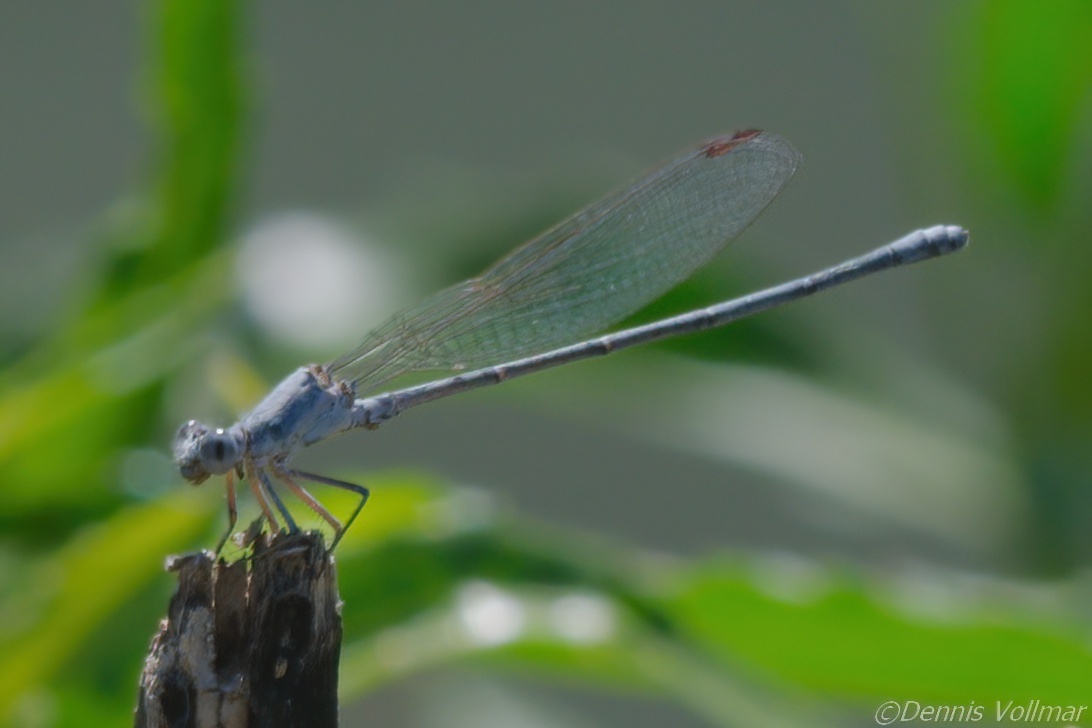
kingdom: Animalia
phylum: Arthropoda
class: Insecta
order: Odonata
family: Coenagrionidae
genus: Argia
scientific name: Argia moesta
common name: Powdered dancer
